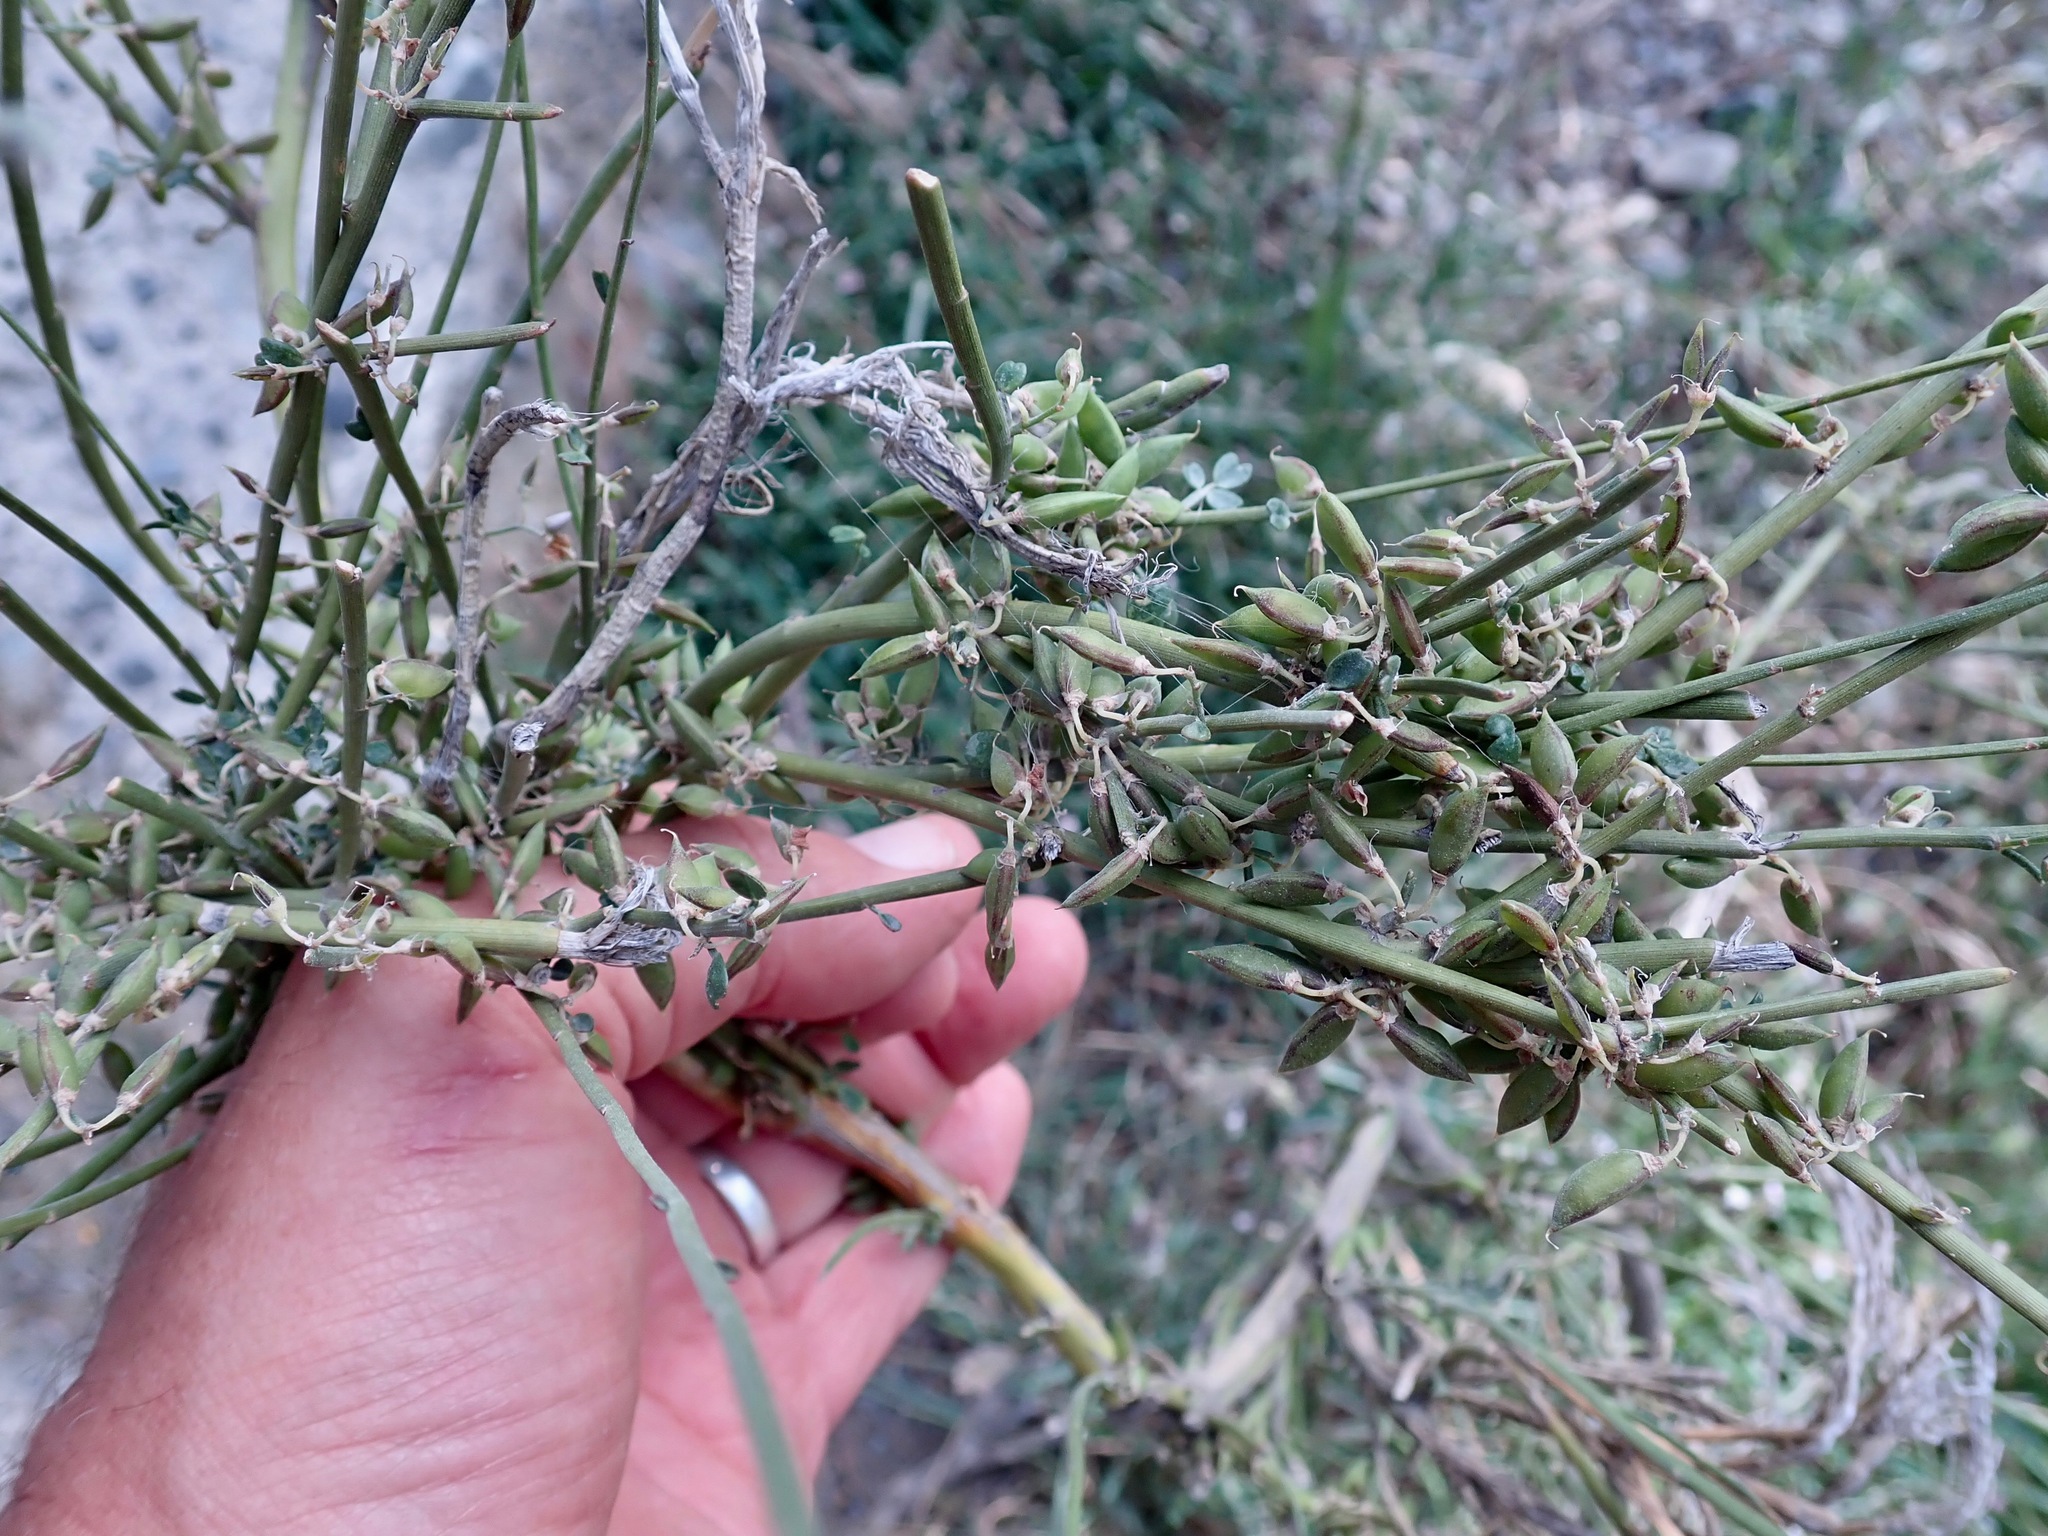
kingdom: Plantae
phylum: Tracheophyta
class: Magnoliopsida
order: Fabales
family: Fabaceae
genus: Carmichaelia
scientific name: Carmichaelia australis
